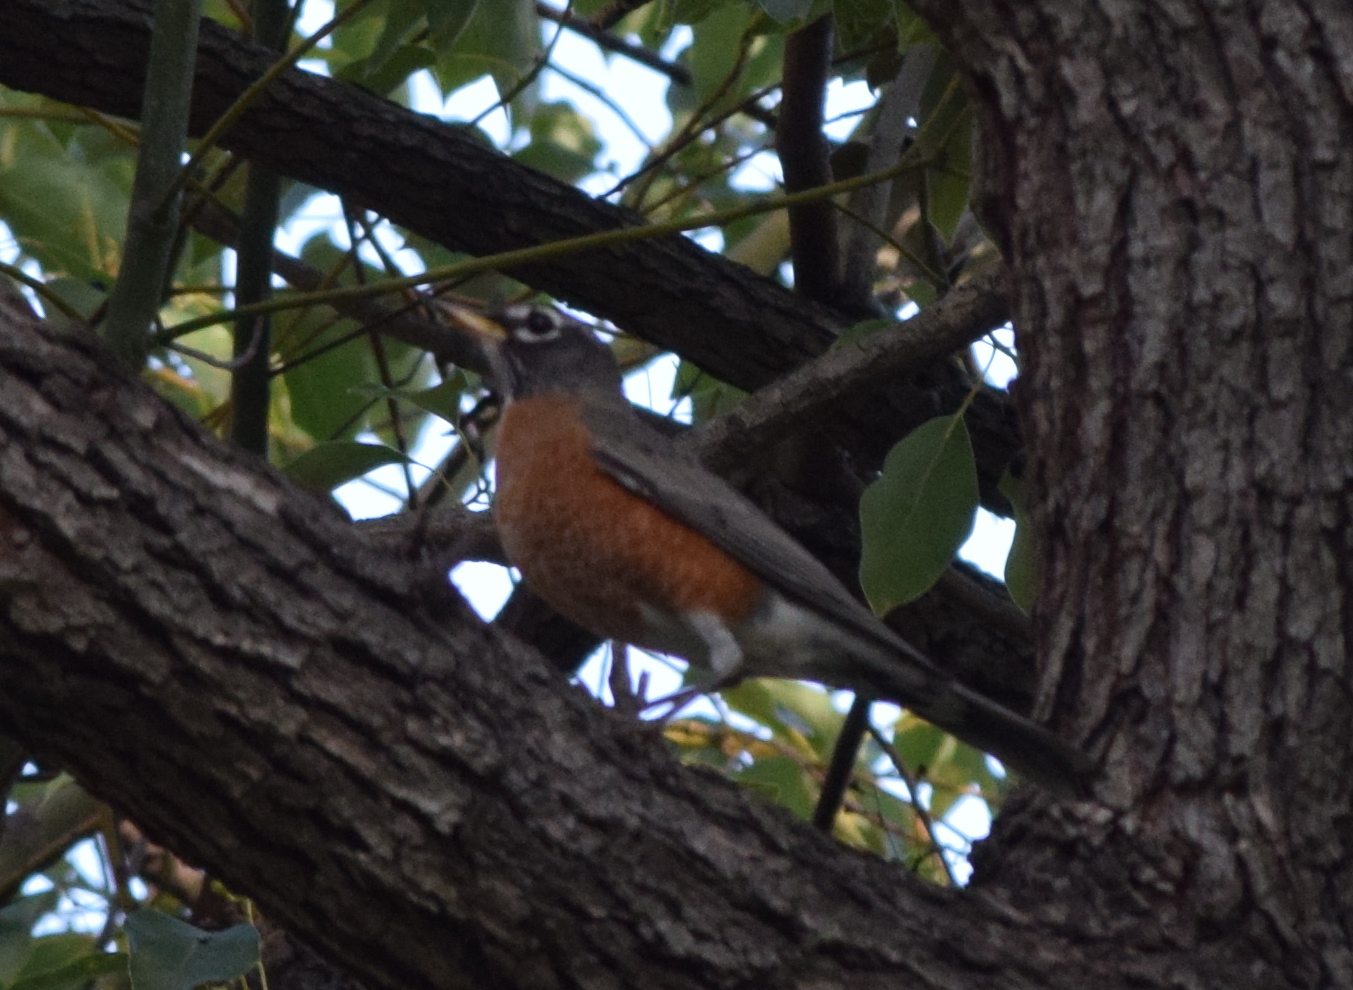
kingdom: Animalia
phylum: Chordata
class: Aves
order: Passeriformes
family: Turdidae
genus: Turdus
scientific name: Turdus migratorius
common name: American robin
